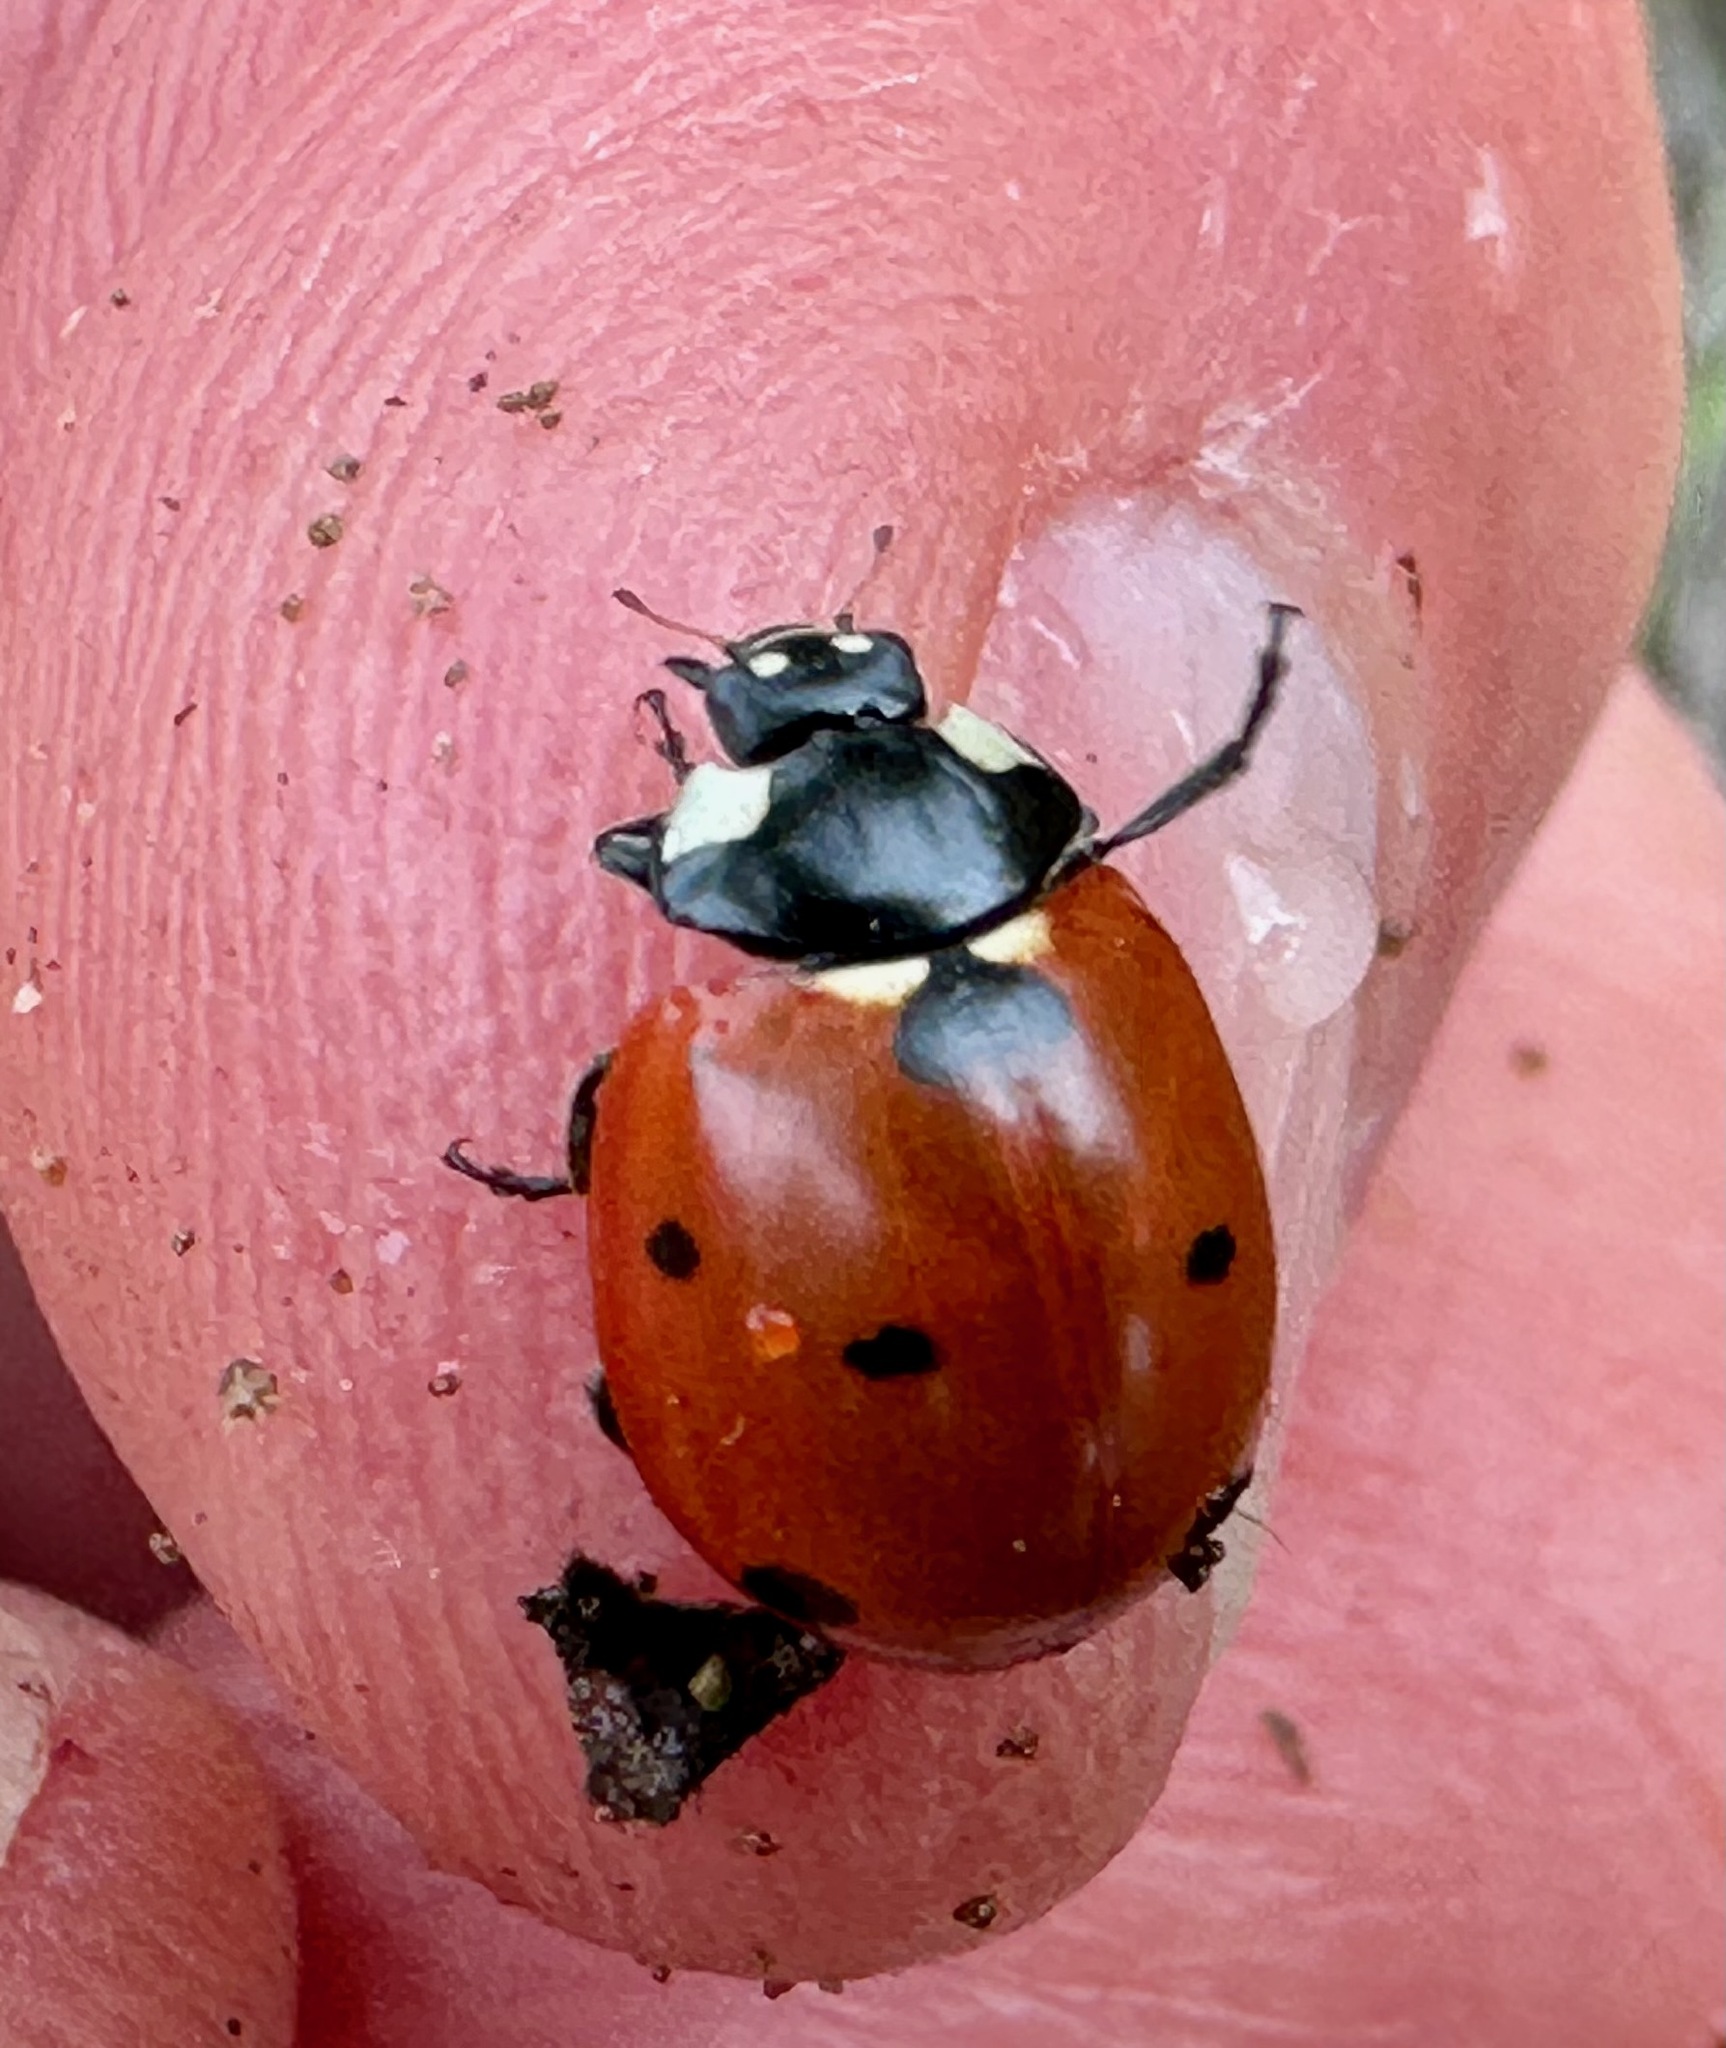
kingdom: Animalia
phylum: Arthropoda
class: Insecta
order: Coleoptera
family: Coccinellidae
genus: Coccinella
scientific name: Coccinella septempunctata
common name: Sevenspotted lady beetle
